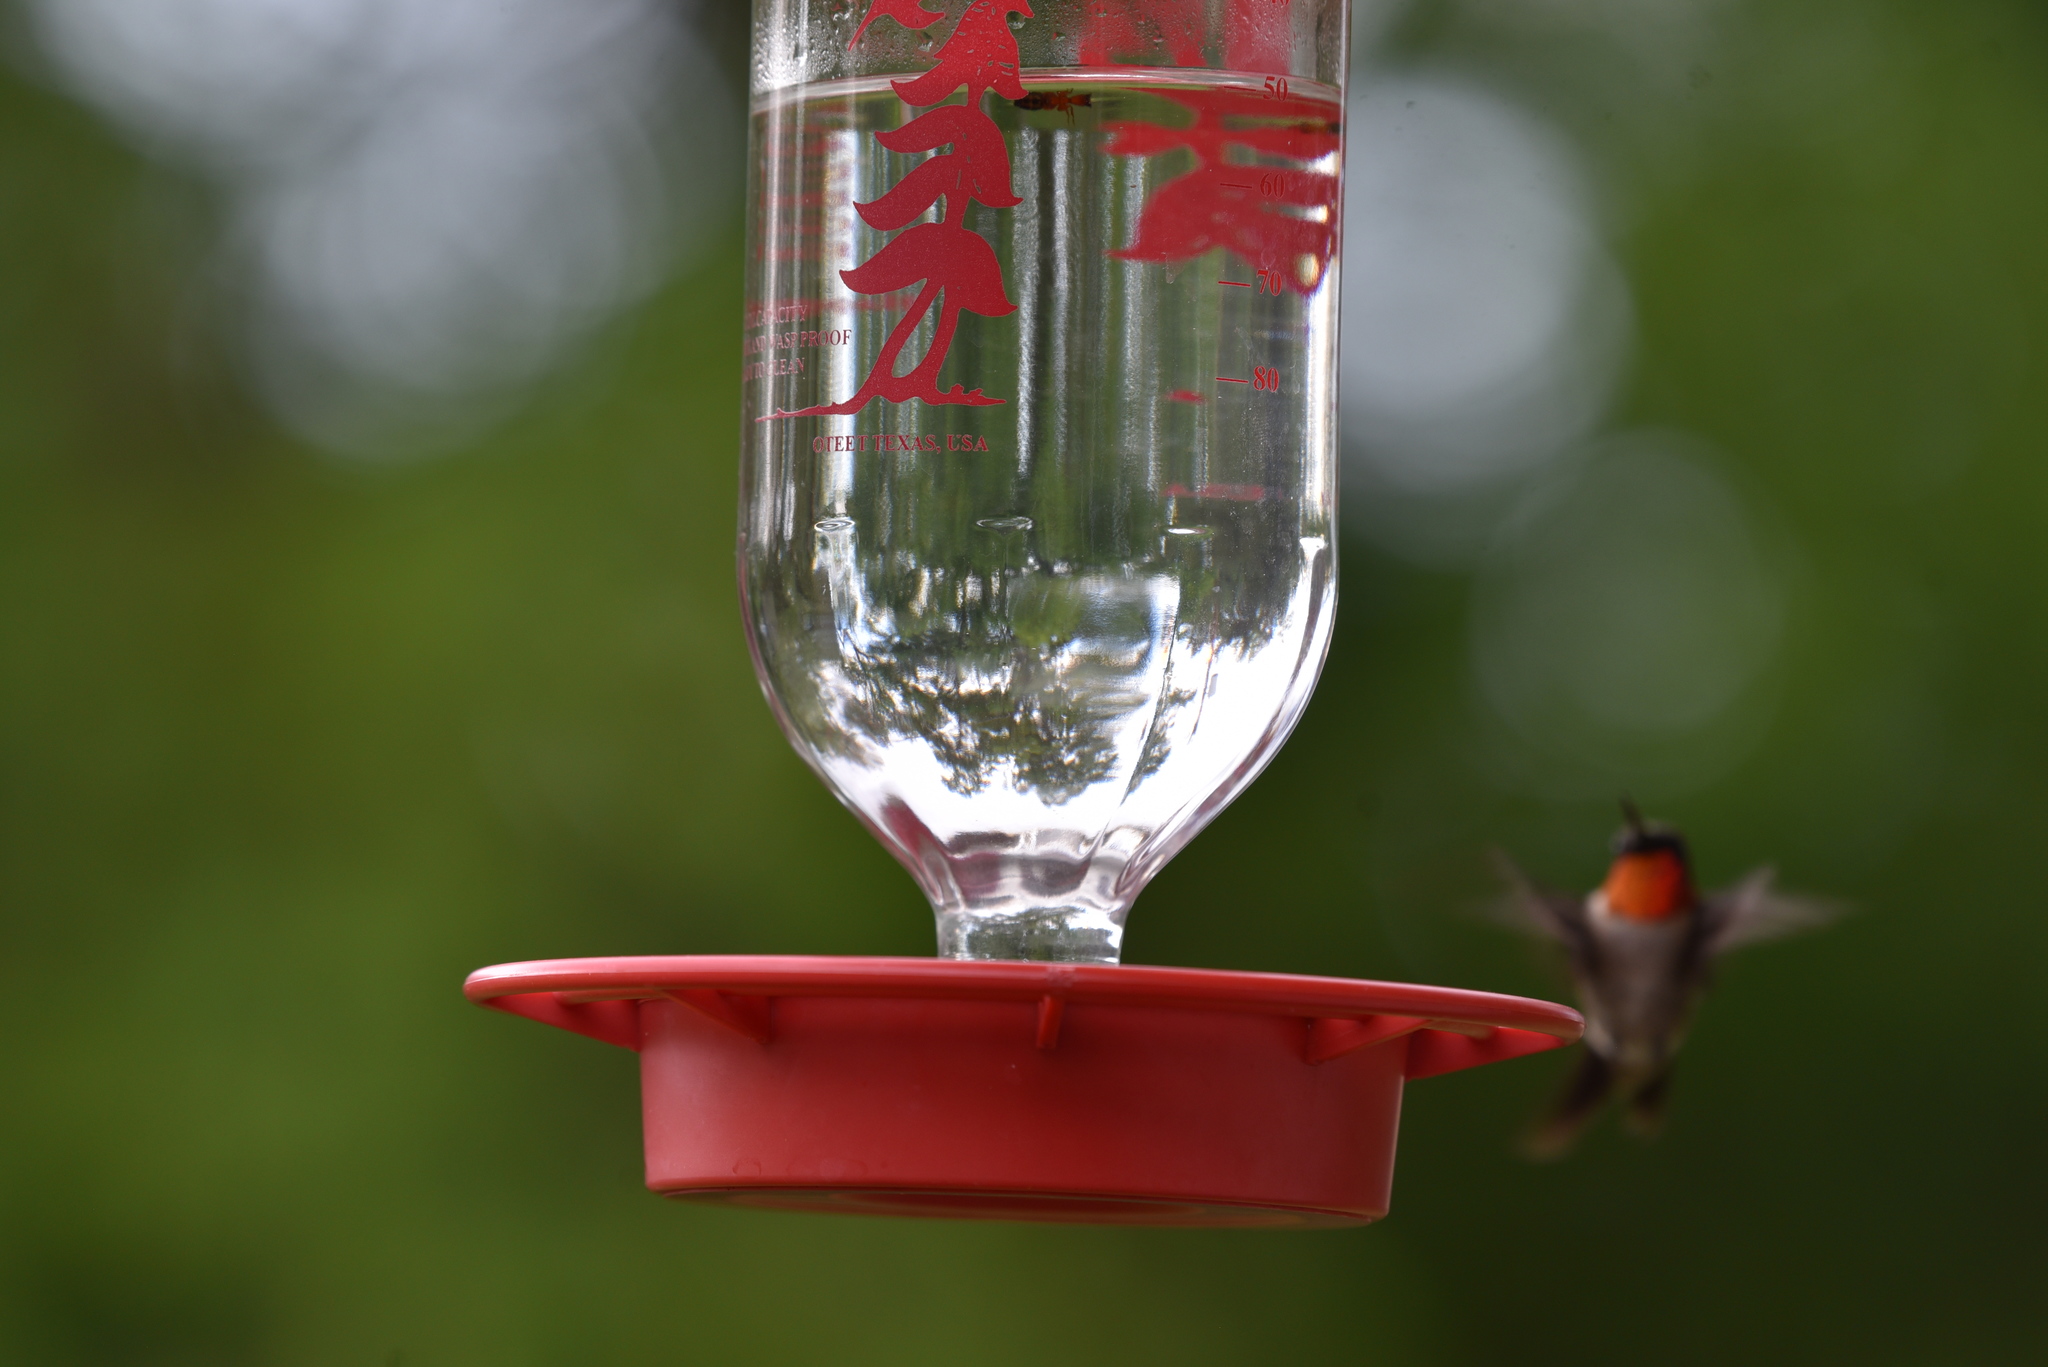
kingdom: Animalia
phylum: Chordata
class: Aves
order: Apodiformes
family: Trochilidae
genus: Archilochus
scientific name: Archilochus colubris
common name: Ruby-throated hummingbird
